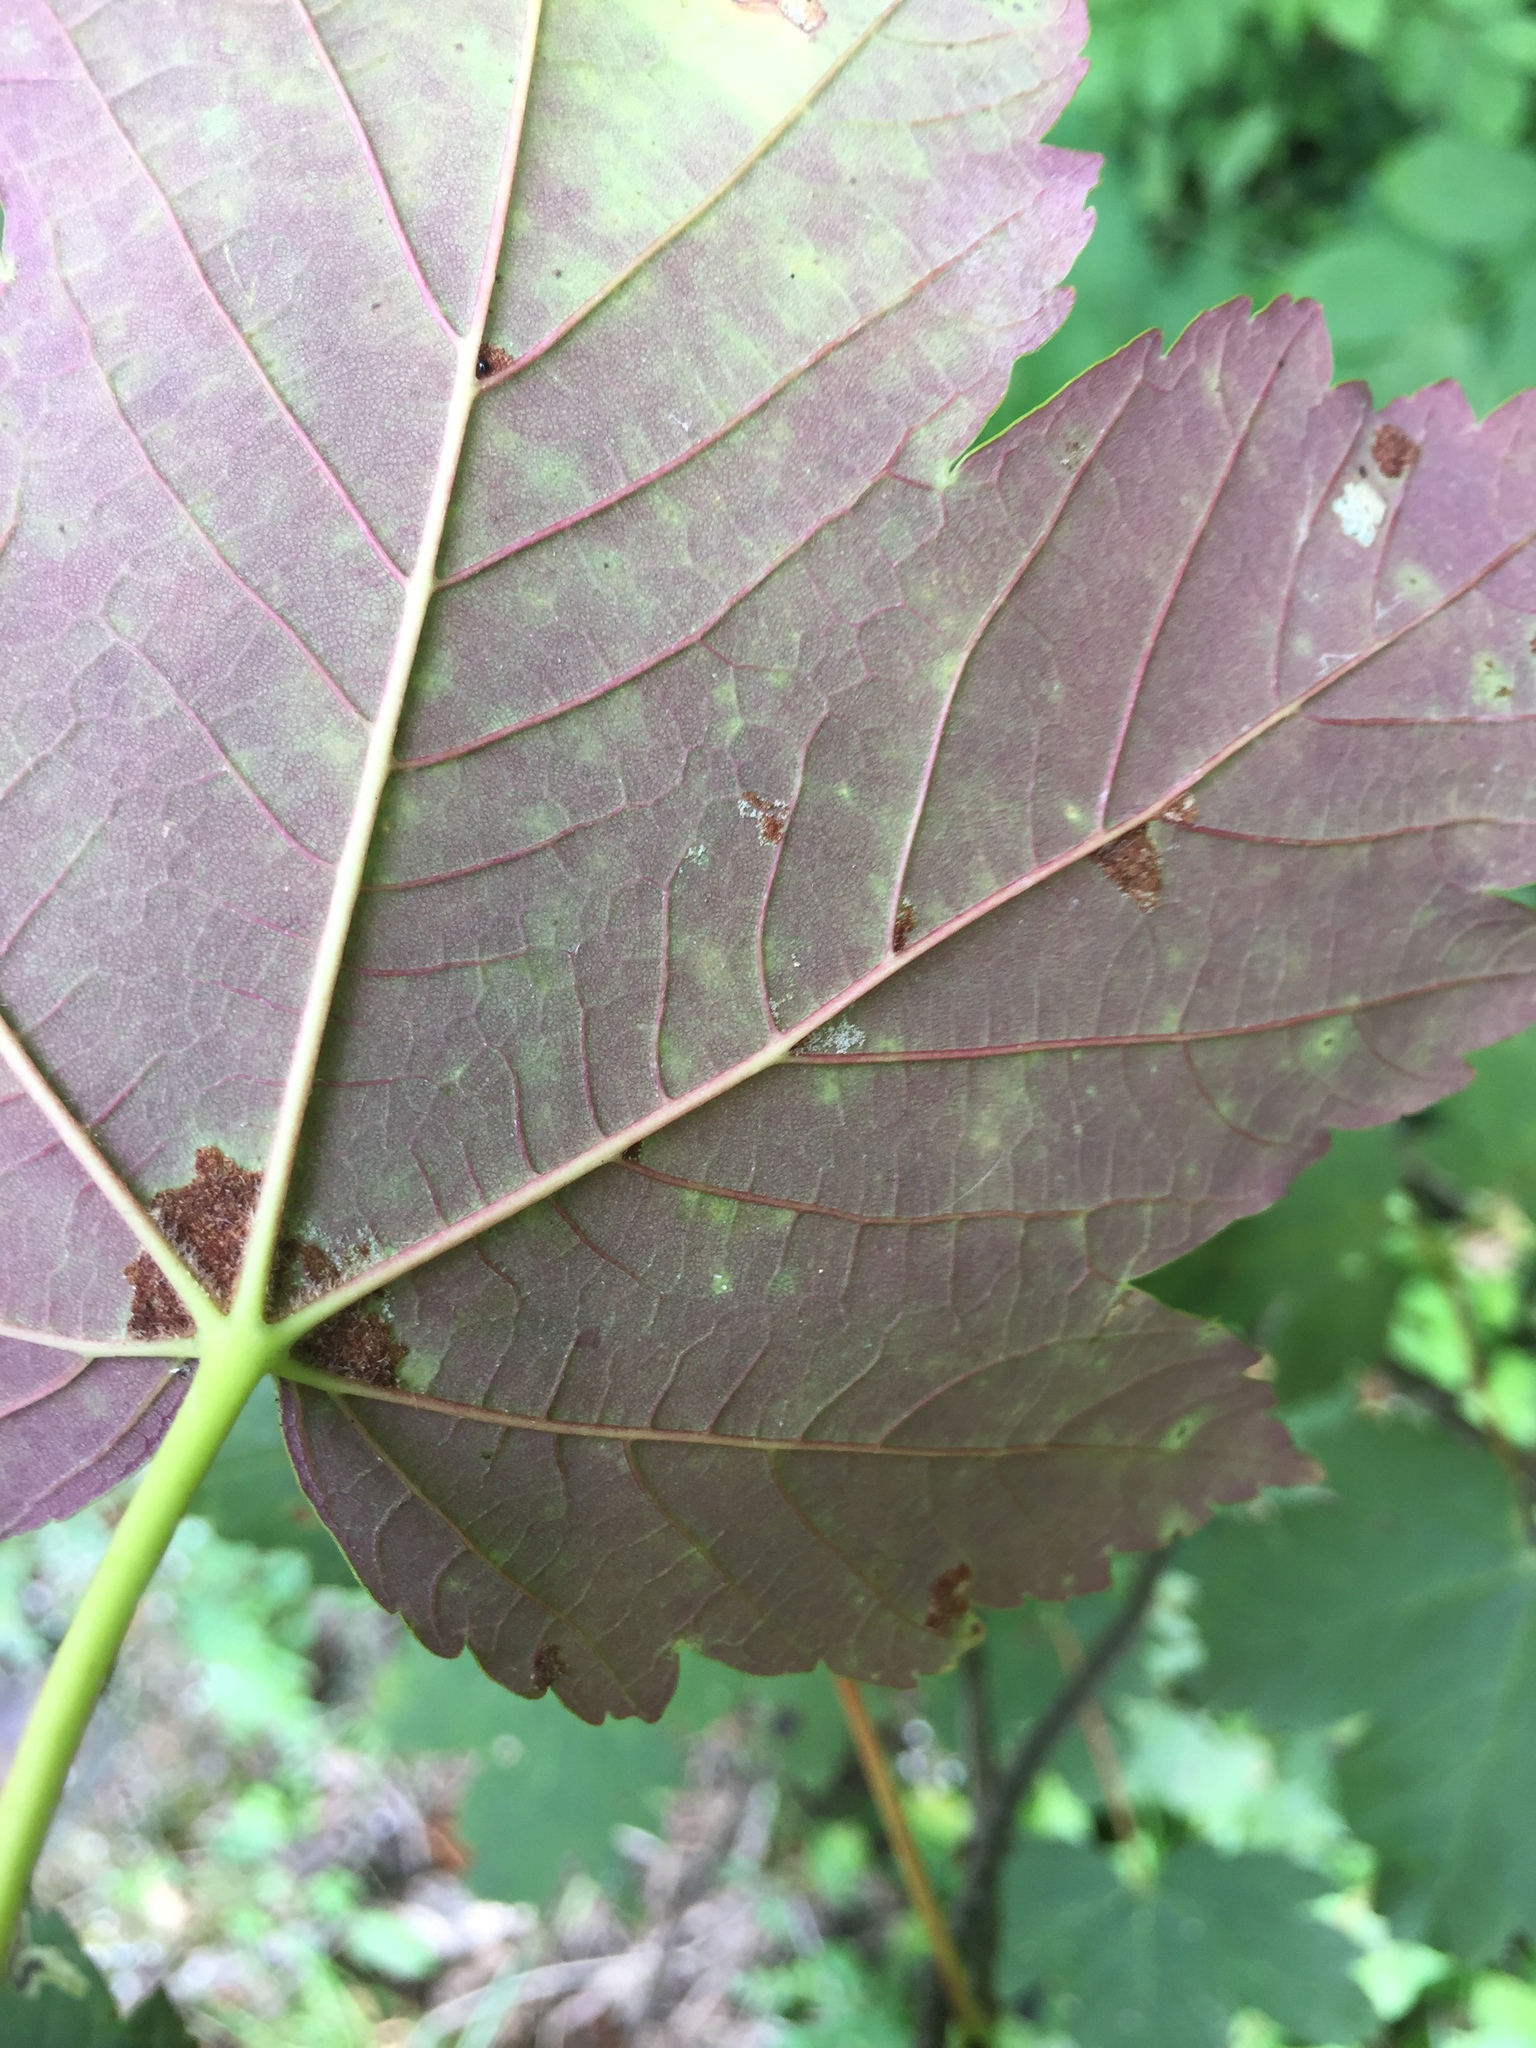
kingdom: Animalia
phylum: Arthropoda
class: Arachnida
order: Trombidiformes
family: Eriophyidae
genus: Aceria
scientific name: Aceria pseudoplatani
